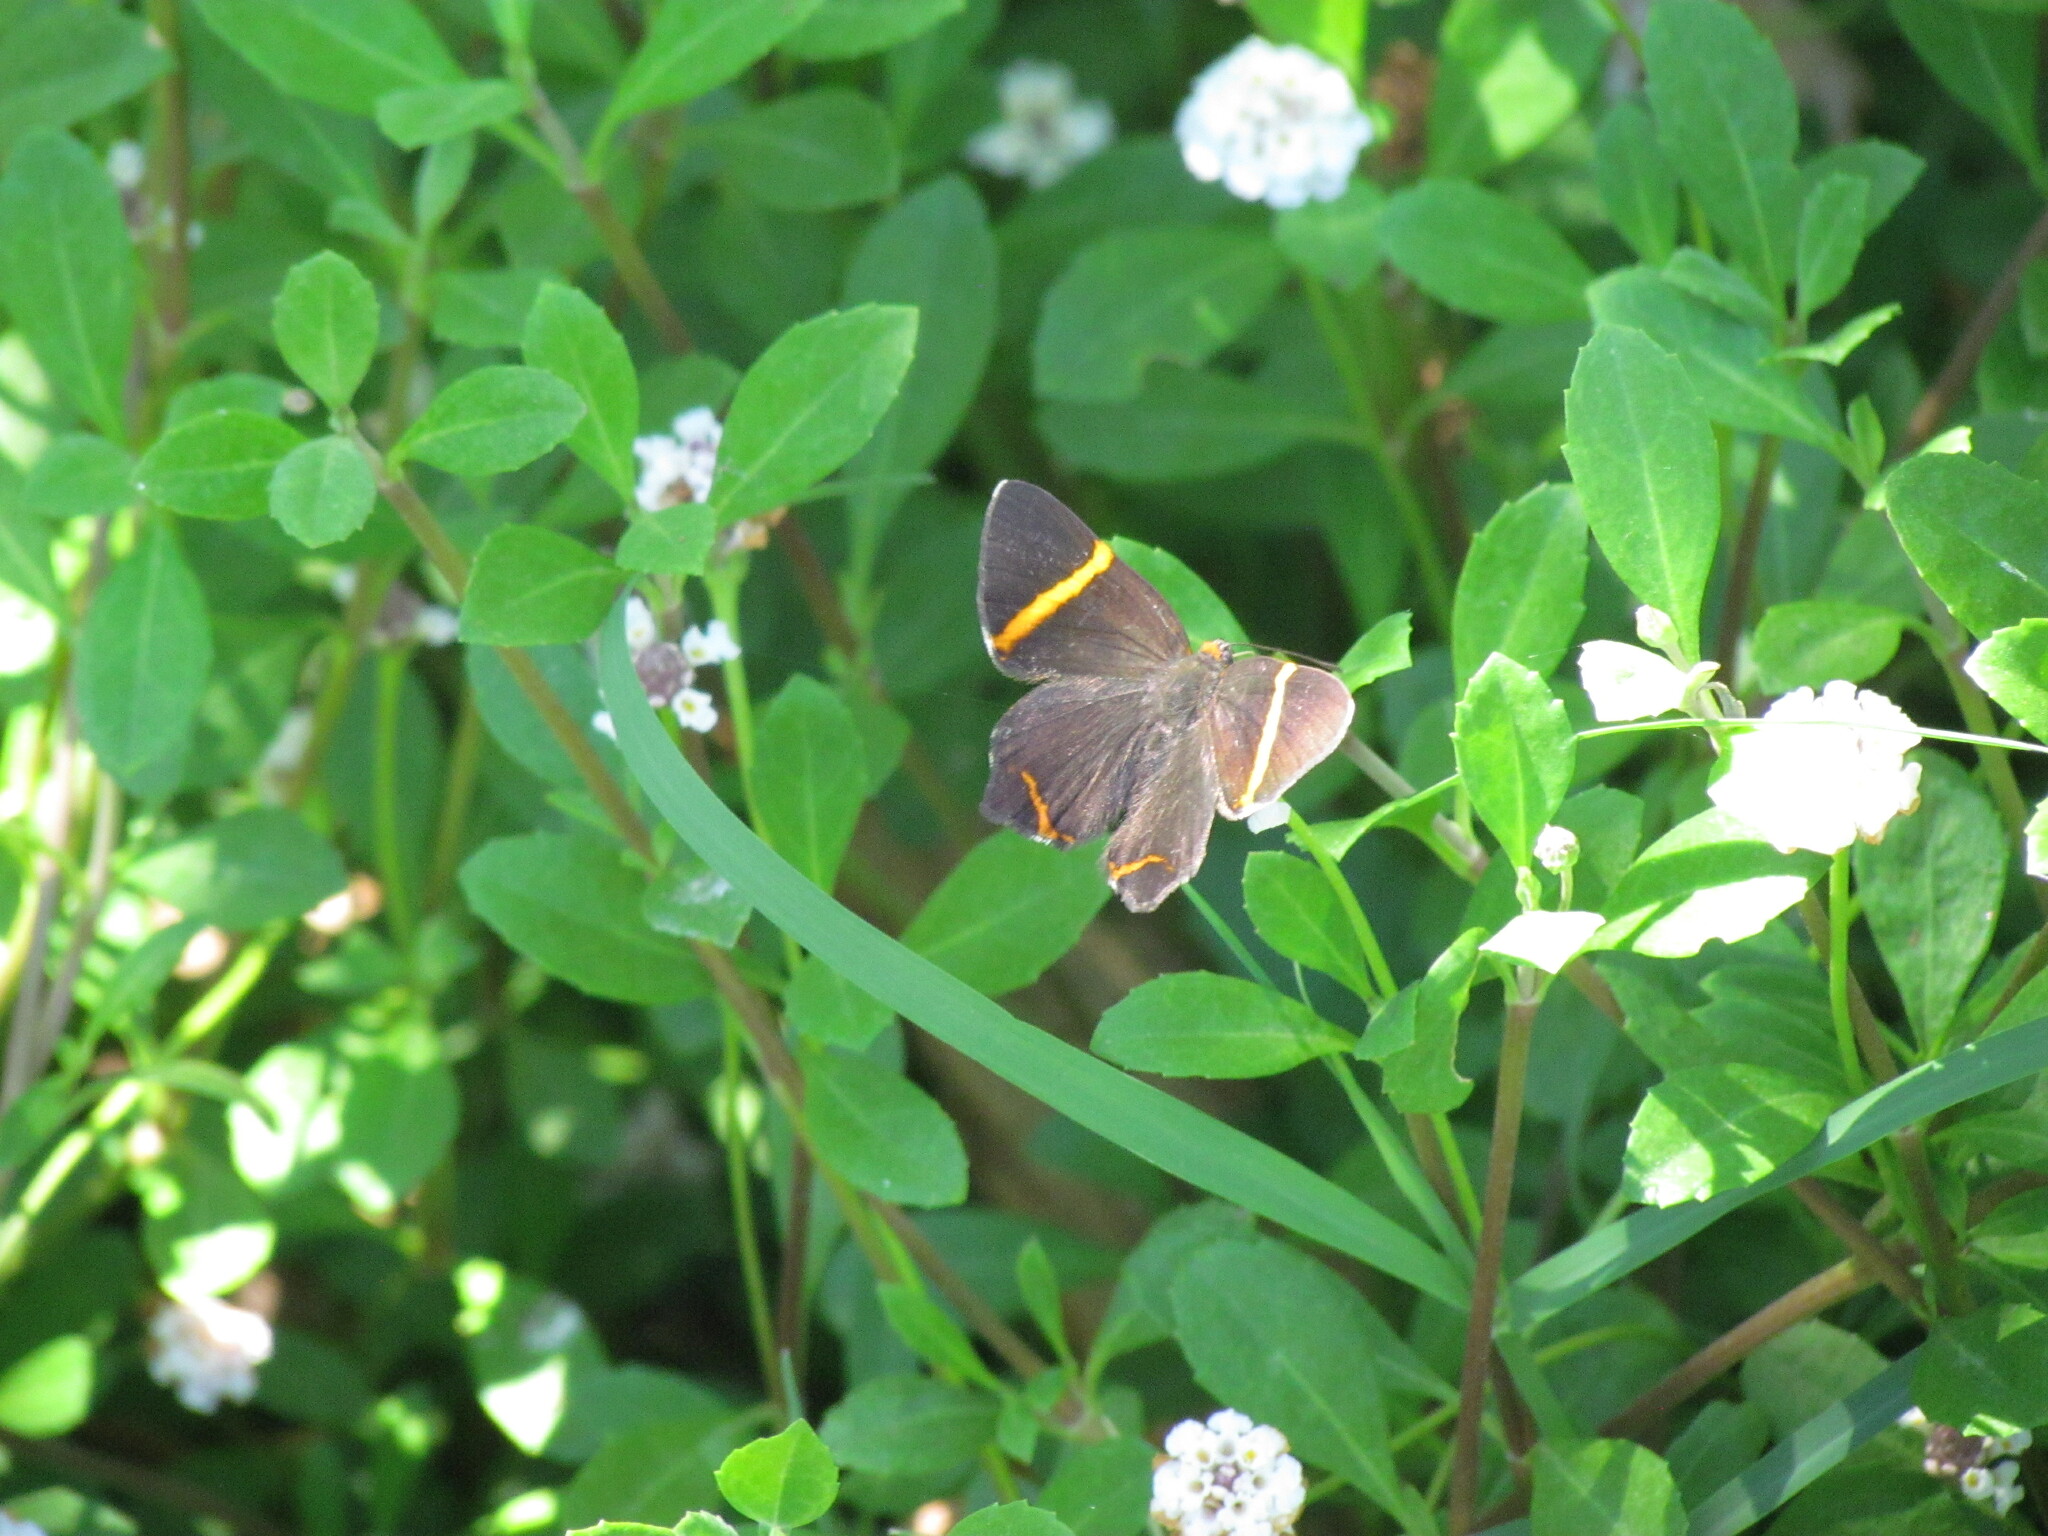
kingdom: Animalia
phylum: Arthropoda
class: Insecta
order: Lepidoptera
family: Riodinidae
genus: Riodina
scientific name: Riodina lysippoides
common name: Little dancer metalmark
